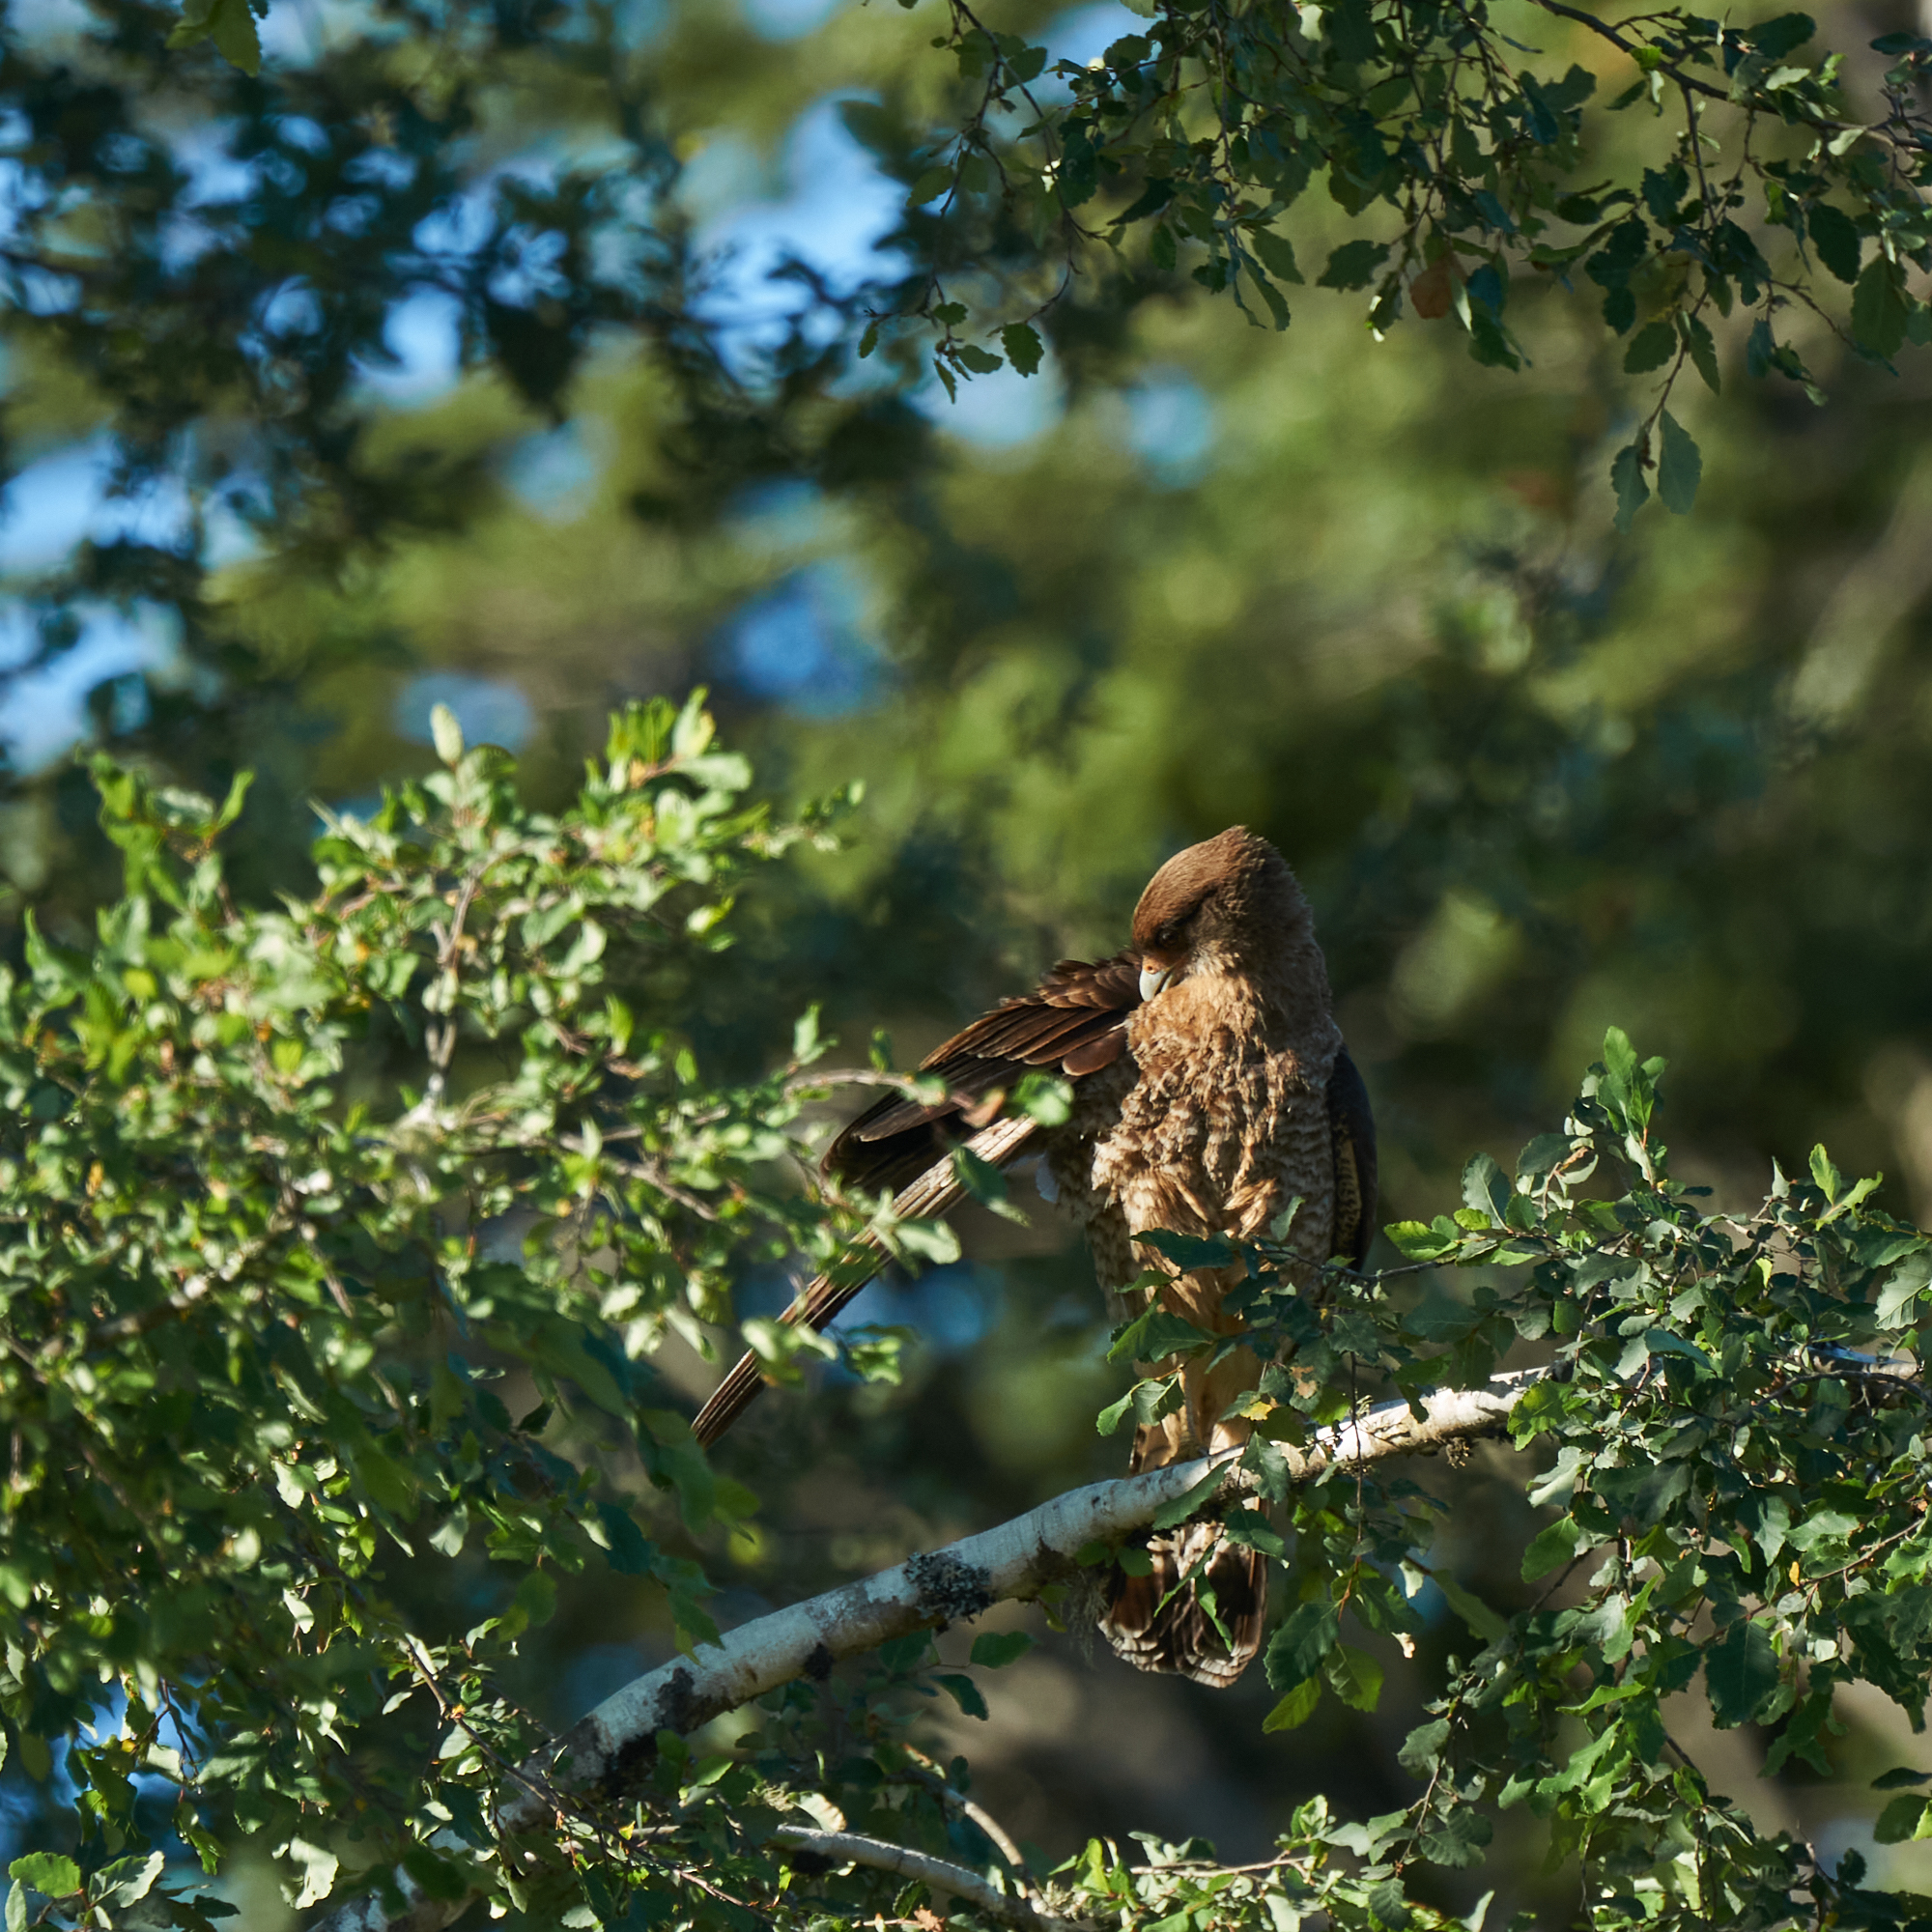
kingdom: Animalia
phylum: Chordata
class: Aves
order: Falconiformes
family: Falconidae
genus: Daptrius
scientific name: Daptrius
